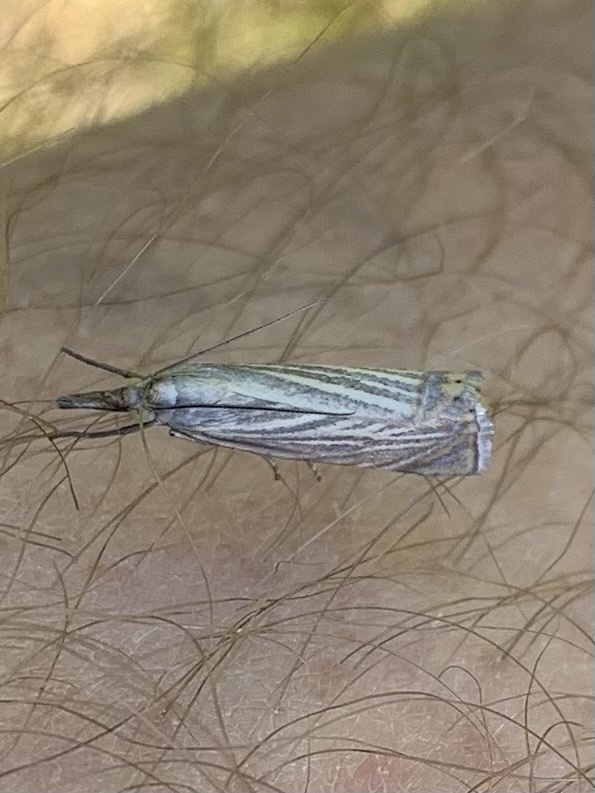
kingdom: Animalia
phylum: Arthropoda
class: Insecta
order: Lepidoptera
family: Crambidae
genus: Chrysoteuchia
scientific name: Chrysoteuchia culmella
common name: Garden grass-veneer
